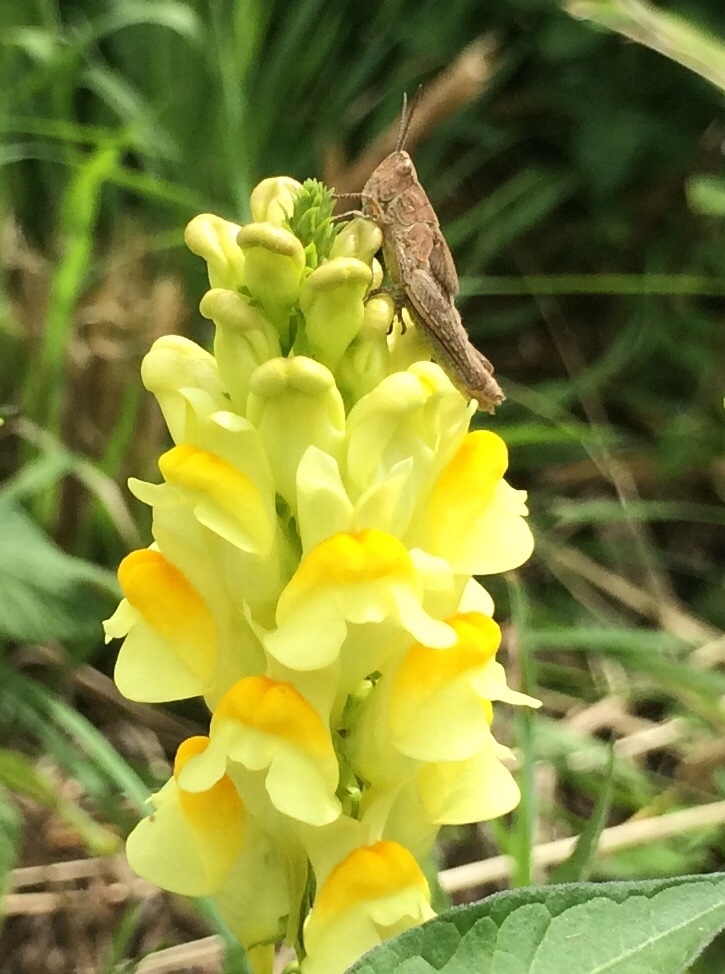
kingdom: Plantae
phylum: Tracheophyta
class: Magnoliopsida
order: Lamiales
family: Plantaginaceae
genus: Linaria
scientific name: Linaria vulgaris
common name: Butter and eggs
